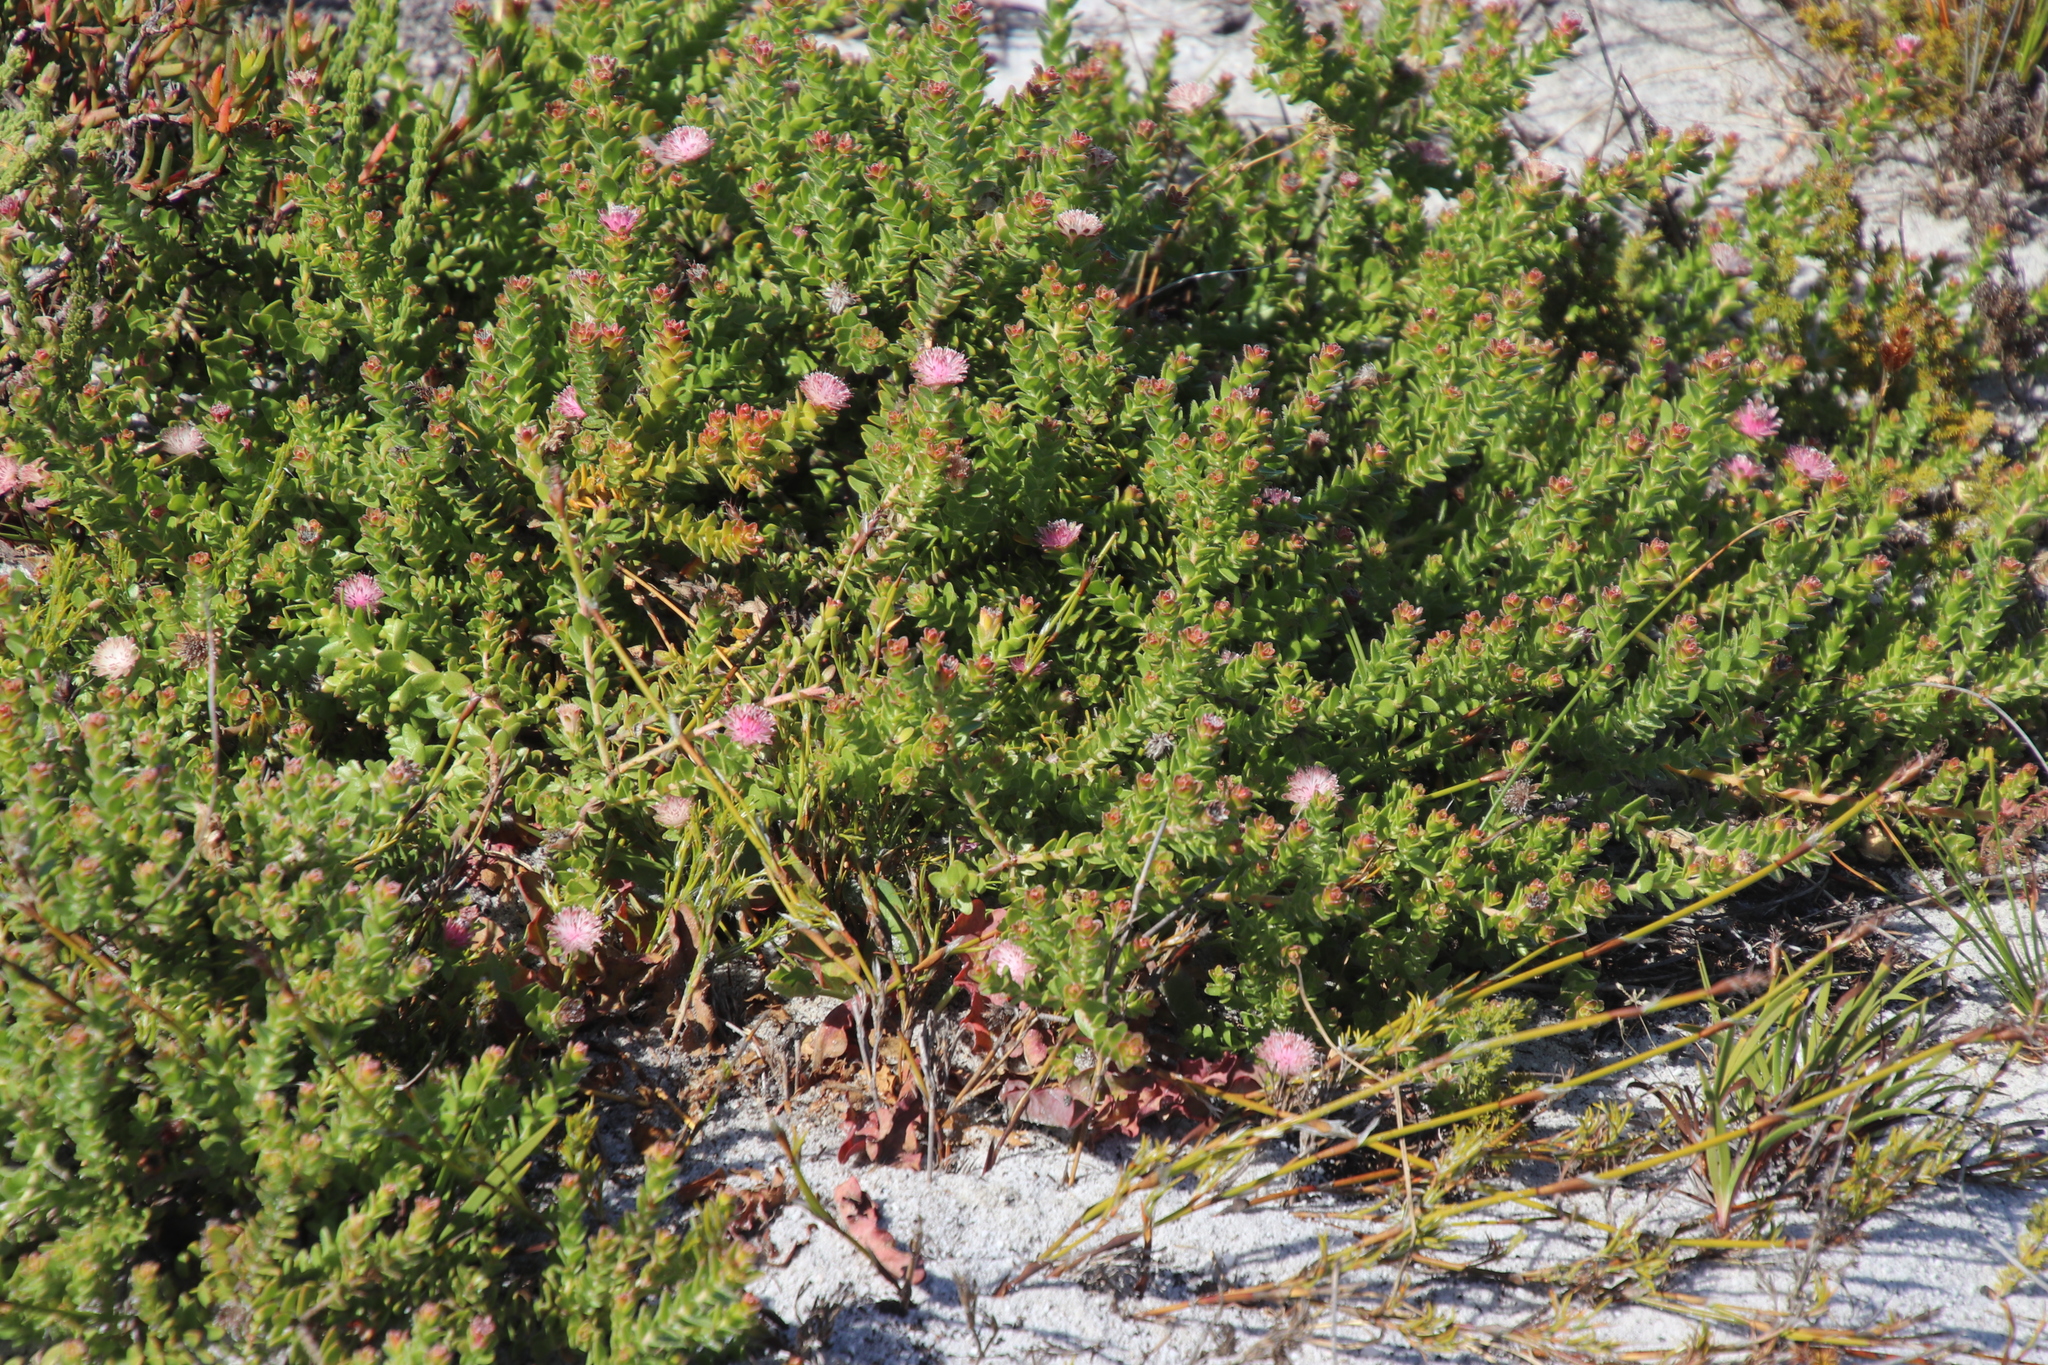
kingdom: Plantae
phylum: Tracheophyta
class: Magnoliopsida
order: Proteales
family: Proteaceae
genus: Diastella
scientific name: Diastella divaricata
